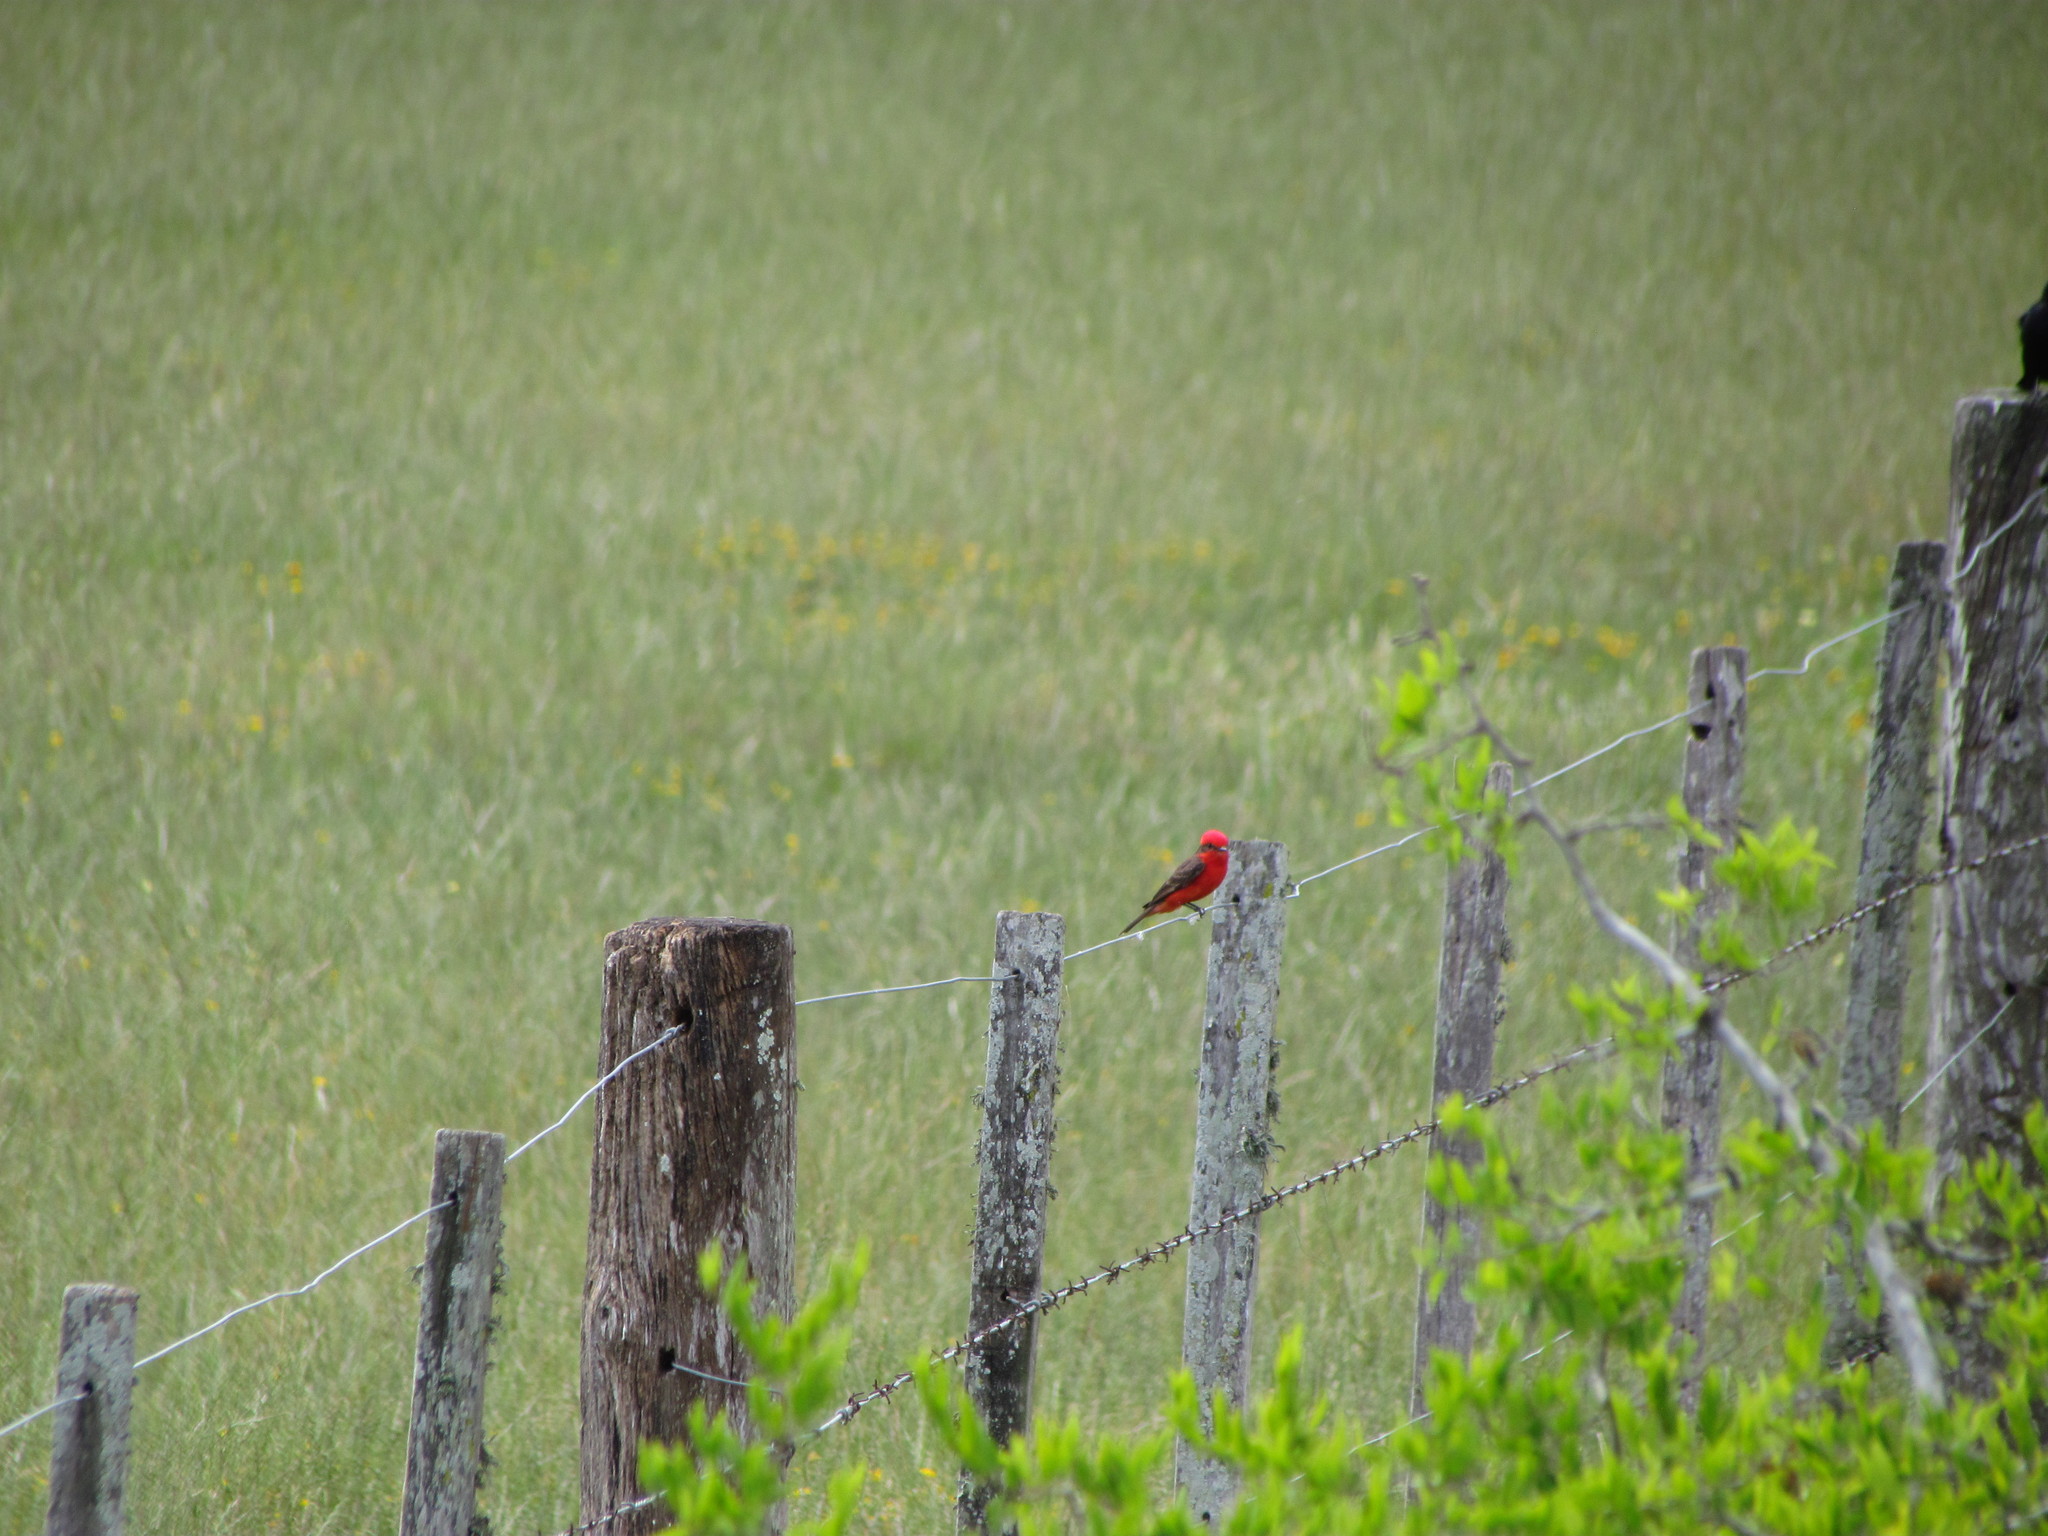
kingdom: Animalia
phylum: Chordata
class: Aves
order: Passeriformes
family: Tyrannidae
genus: Pyrocephalus
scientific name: Pyrocephalus rubinus
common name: Vermilion flycatcher
